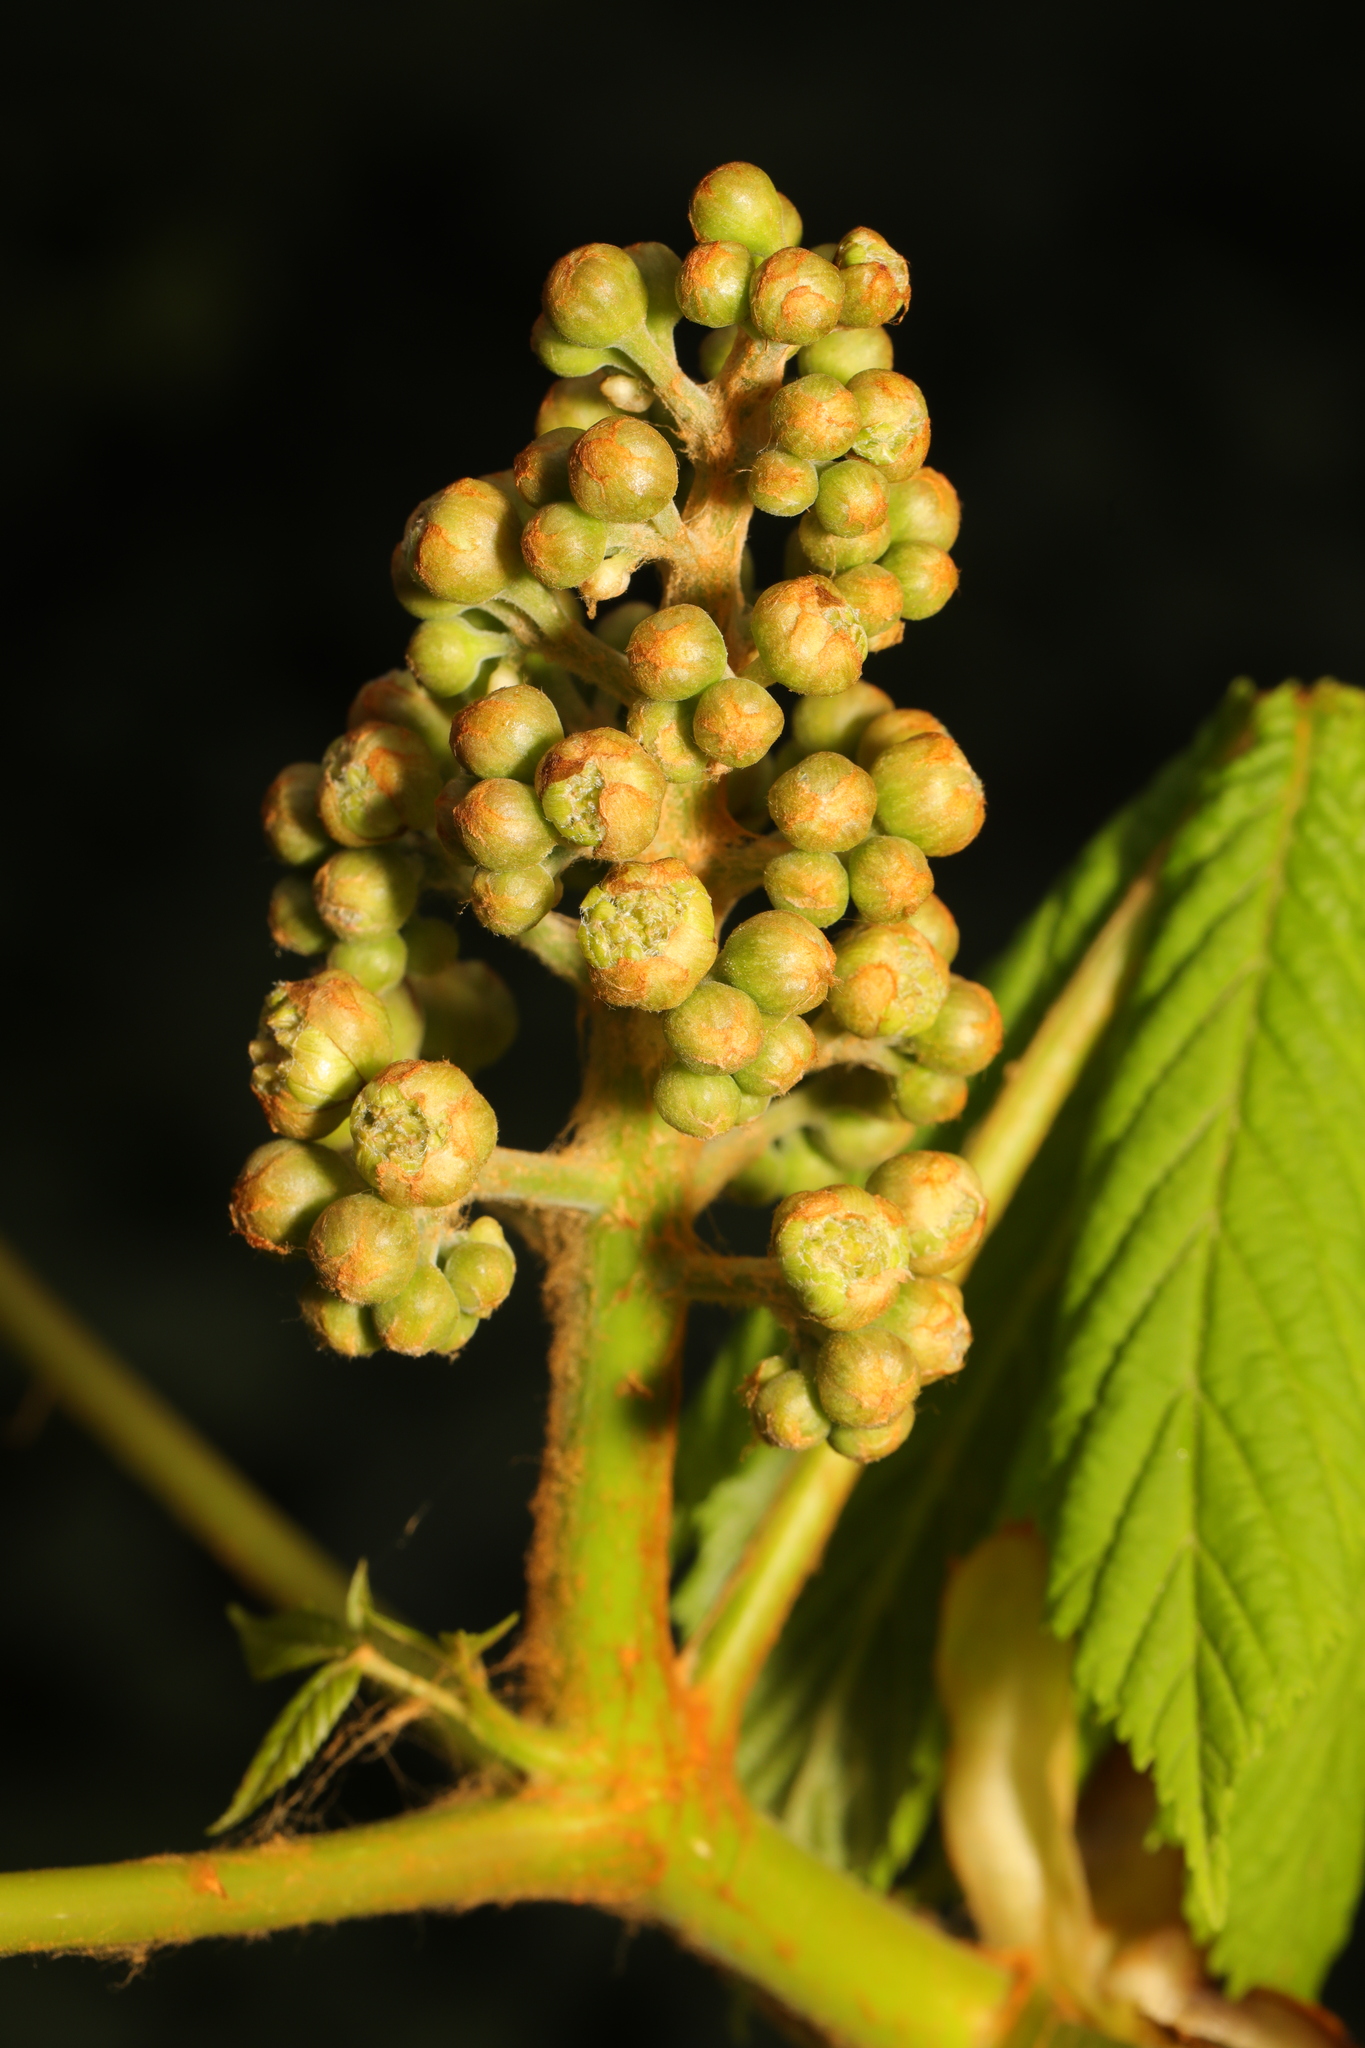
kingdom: Plantae
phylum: Tracheophyta
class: Magnoliopsida
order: Sapindales
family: Sapindaceae
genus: Aesculus
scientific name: Aesculus hippocastanum
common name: Horse-chestnut
